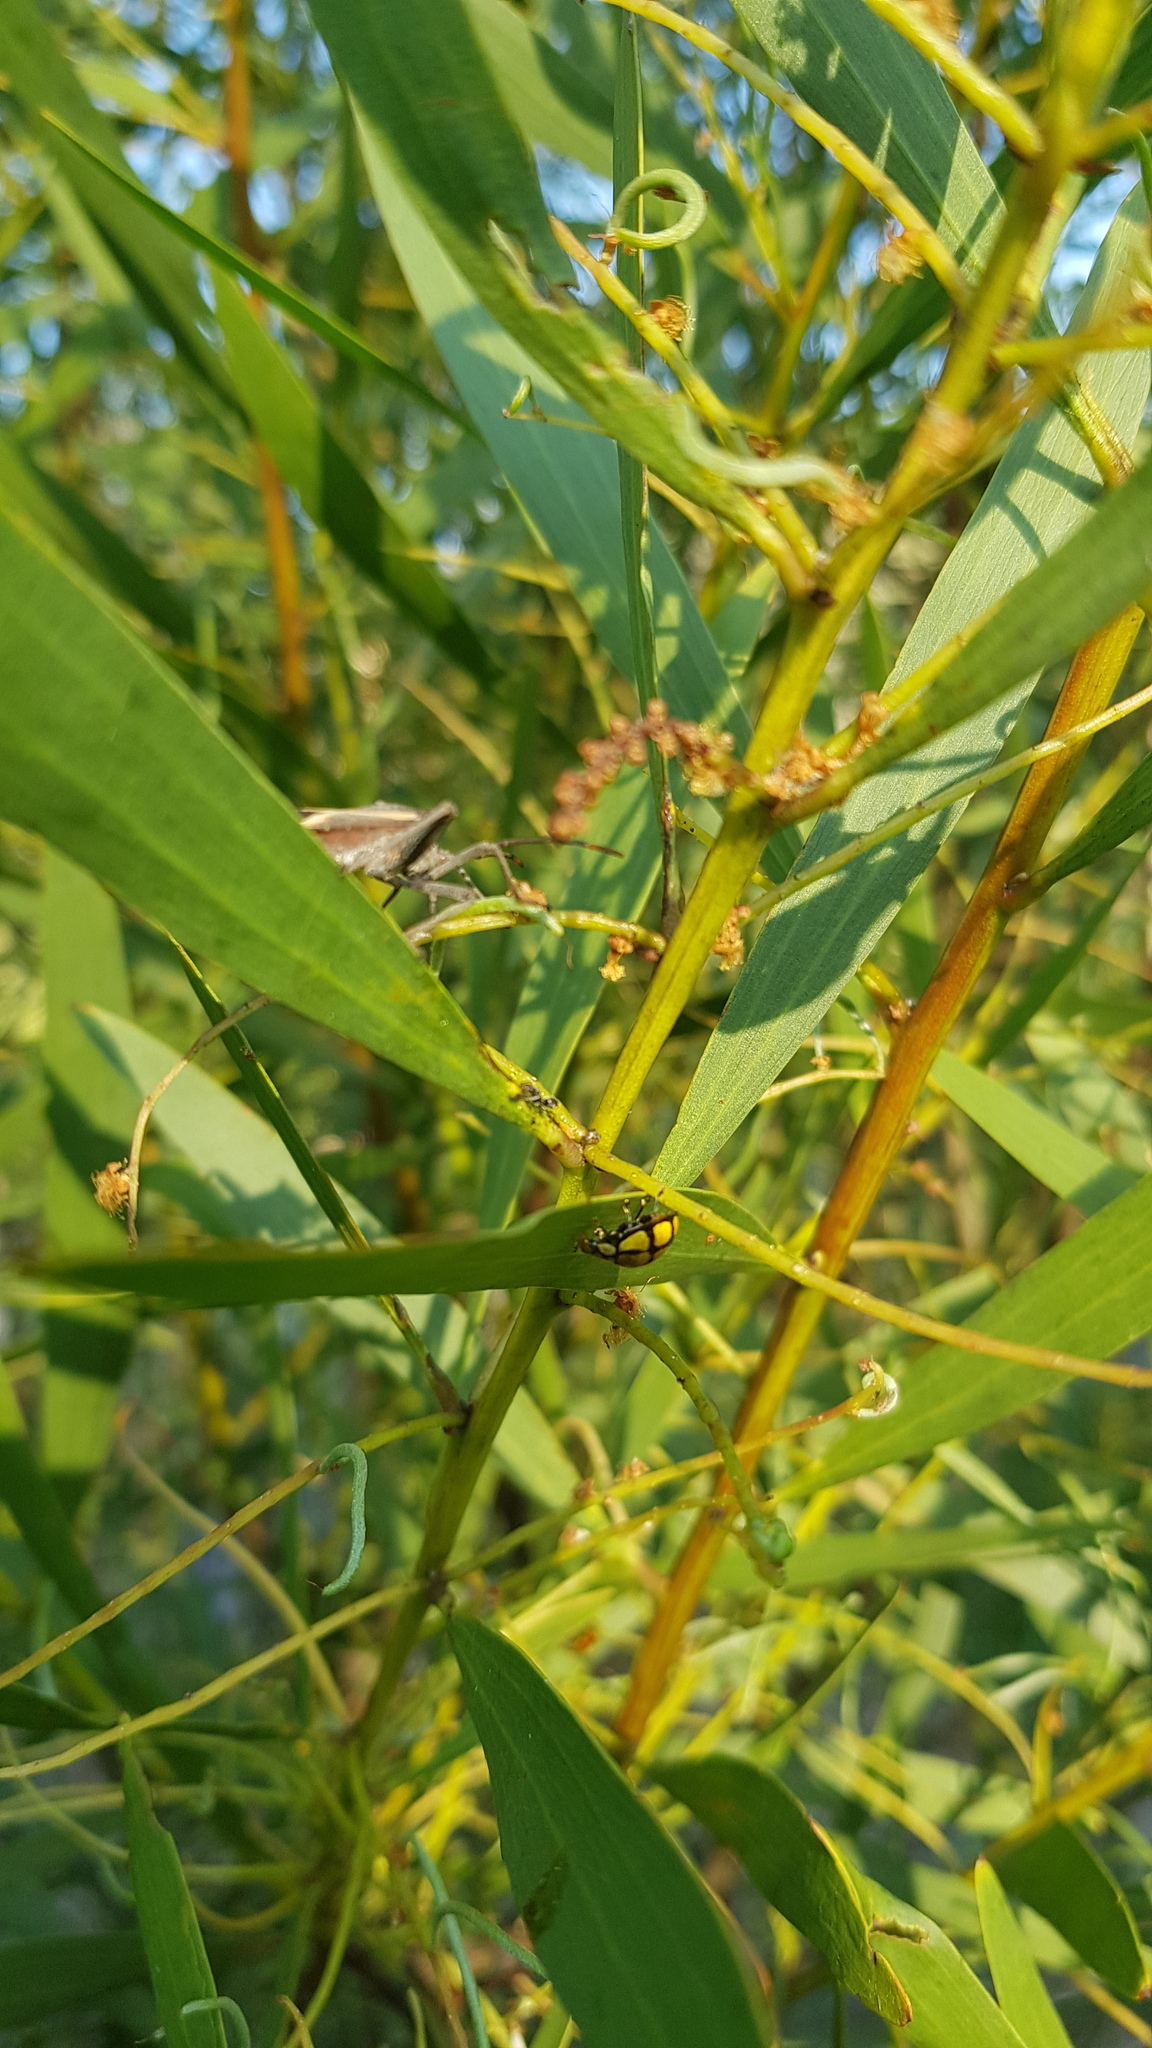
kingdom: Animalia
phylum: Arthropoda
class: Insecta
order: Coleoptera
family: Coccinellidae
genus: Harmonia
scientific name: Harmonia
